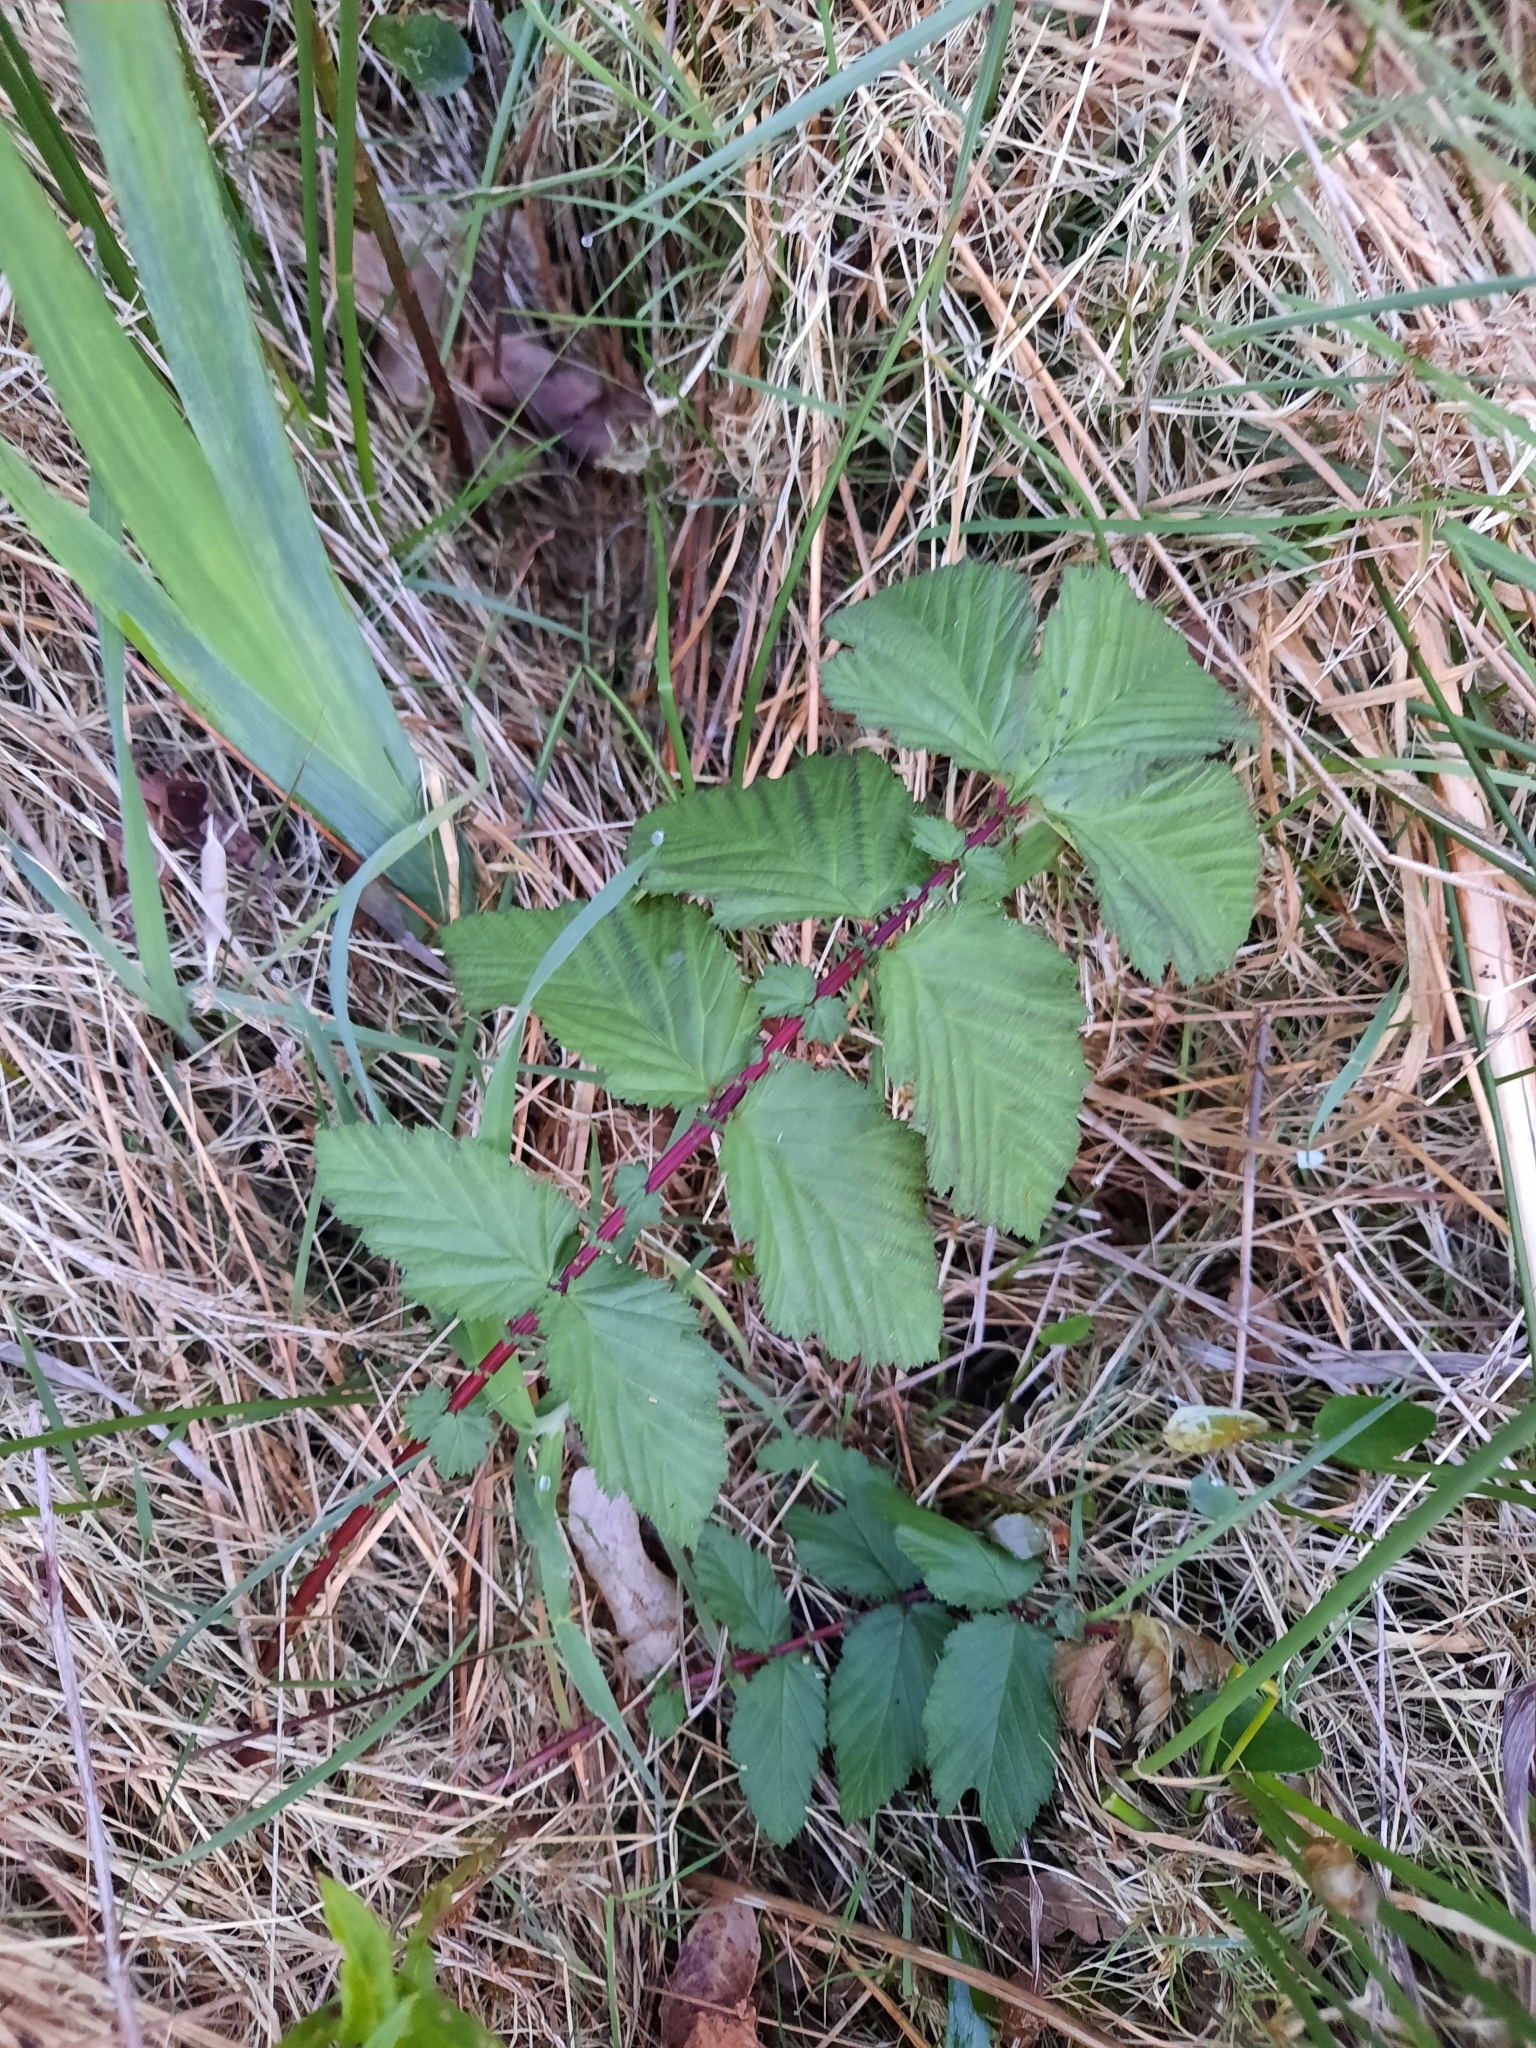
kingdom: Plantae
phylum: Tracheophyta
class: Magnoliopsida
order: Rosales
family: Rosaceae
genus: Filipendula
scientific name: Filipendula ulmaria
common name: Meadowsweet
